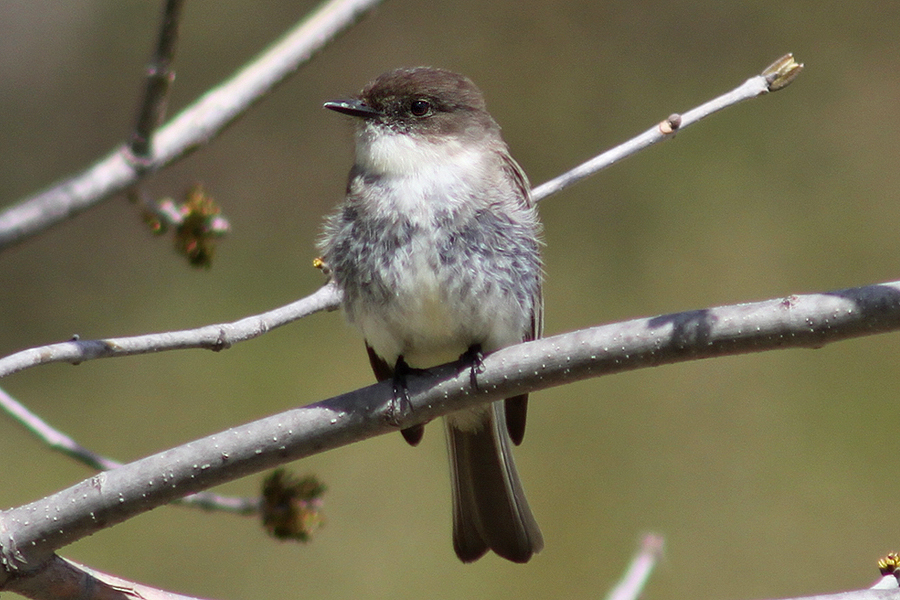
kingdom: Animalia
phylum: Chordata
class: Aves
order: Passeriformes
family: Tyrannidae
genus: Sayornis
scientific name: Sayornis phoebe
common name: Eastern phoebe
